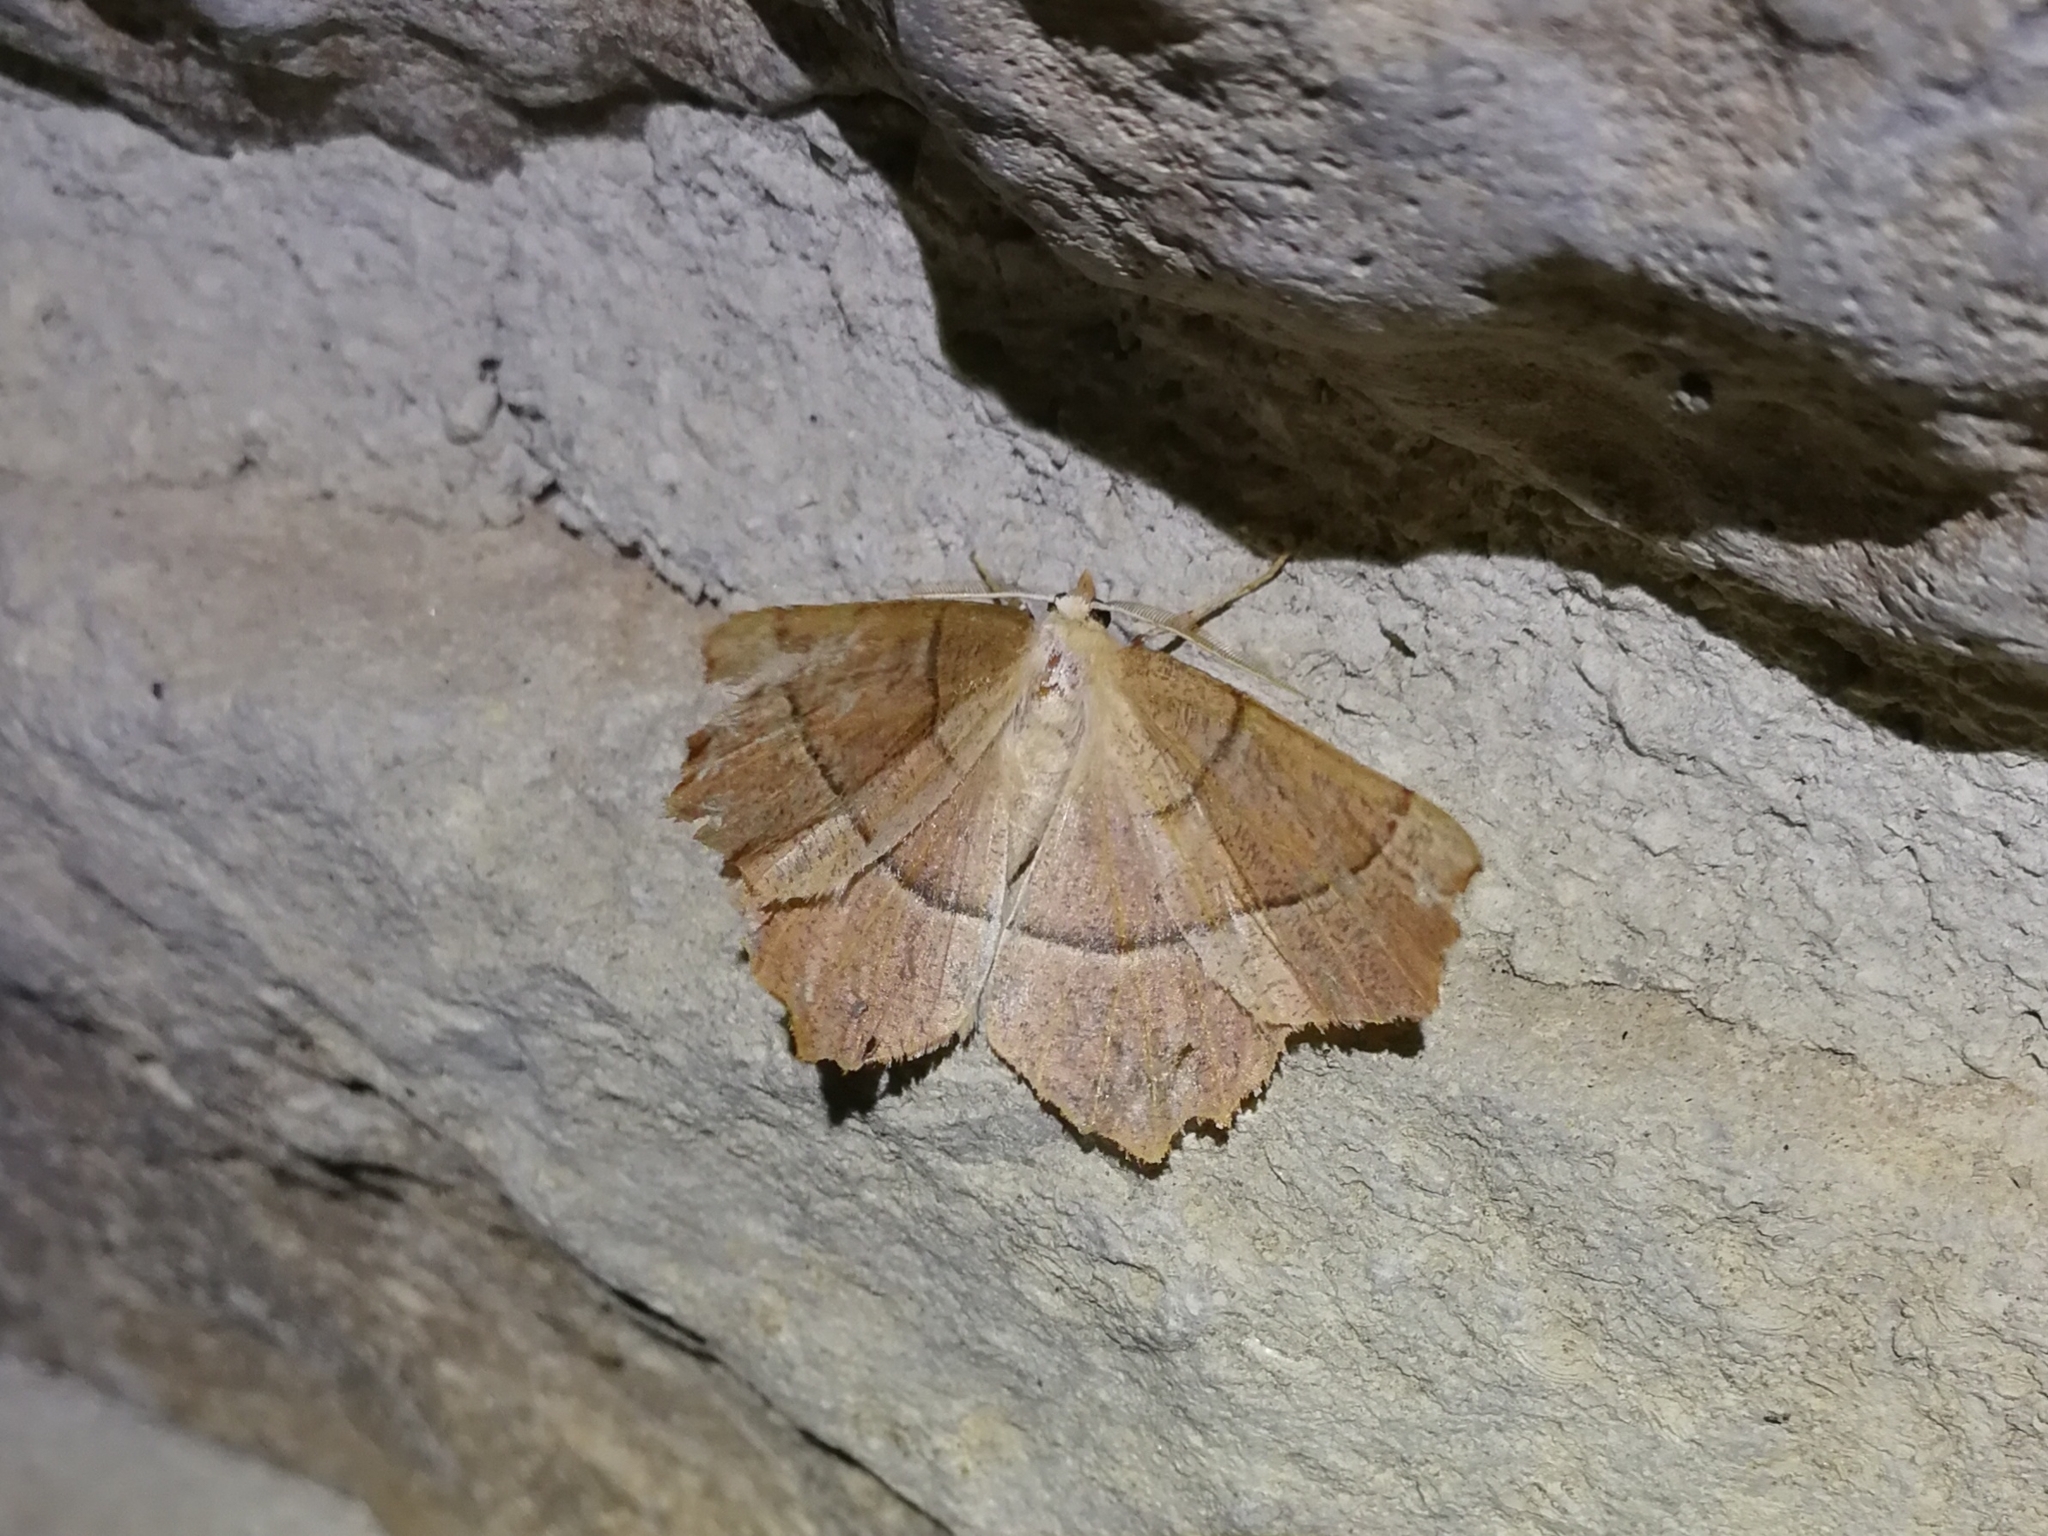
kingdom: Animalia
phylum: Arthropoda
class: Insecta
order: Lepidoptera
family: Geometridae
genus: Gerinia
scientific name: Gerinia honoraria
